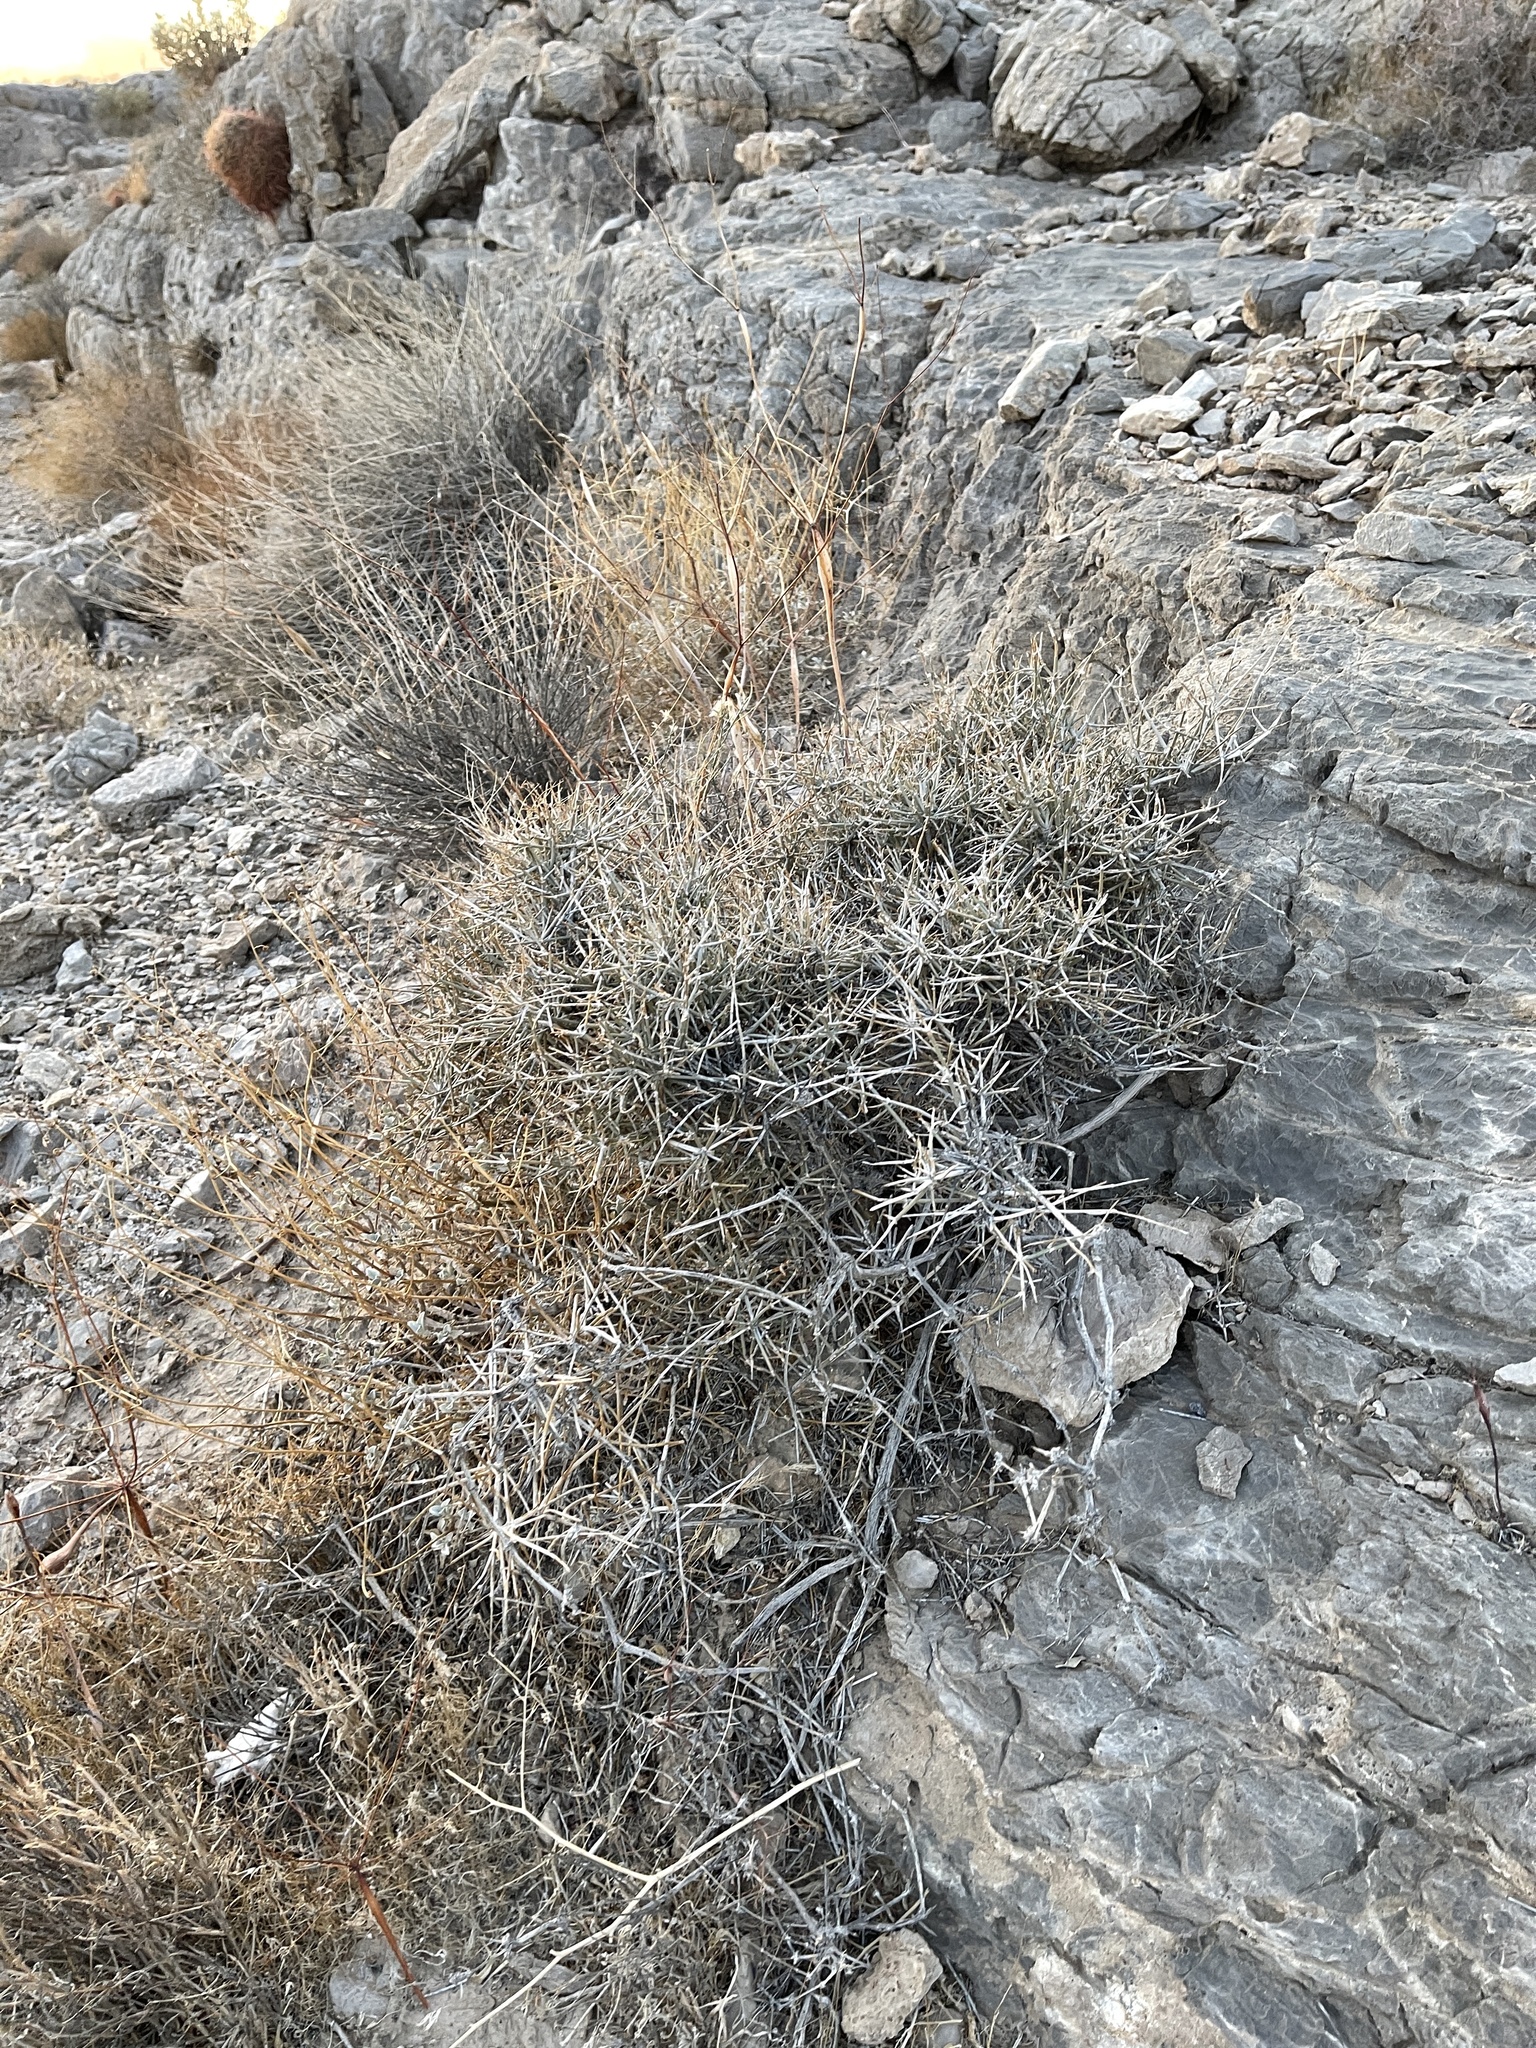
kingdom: Plantae
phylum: Tracheophyta
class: Gnetopsida
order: Ephedrales
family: Ephedraceae
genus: Ephedra
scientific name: Ephedra nevadensis
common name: Gray ephedra
